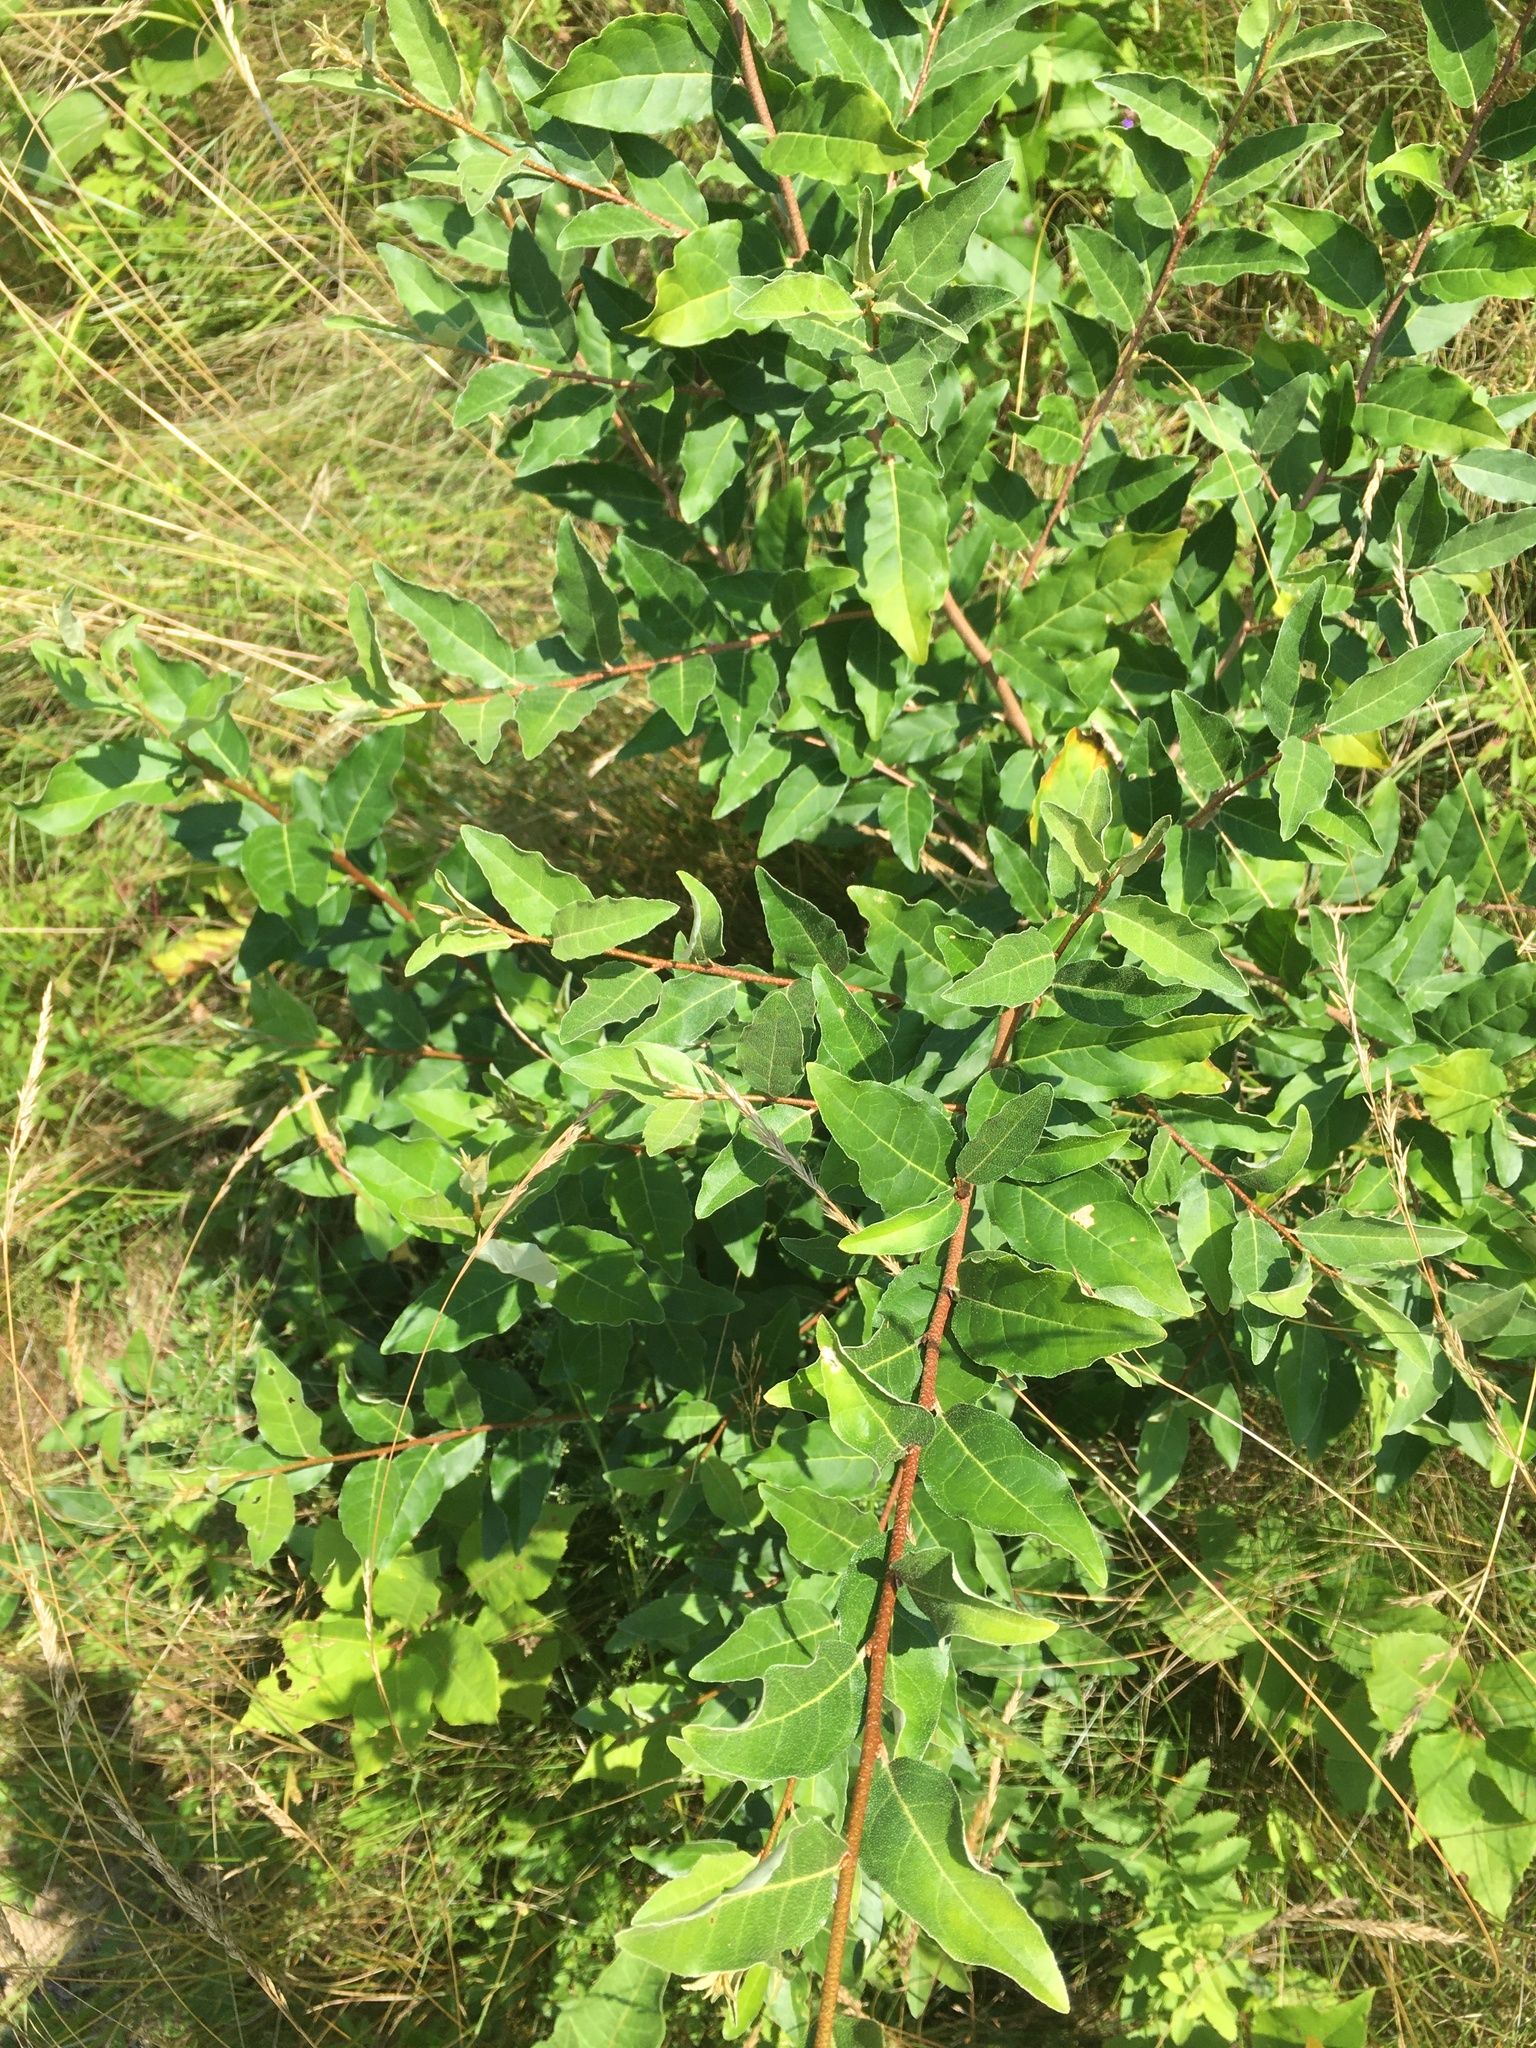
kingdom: Plantae
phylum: Tracheophyta
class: Magnoliopsida
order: Rosales
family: Elaeagnaceae
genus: Elaeagnus
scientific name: Elaeagnus umbellata
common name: Autumn olive
